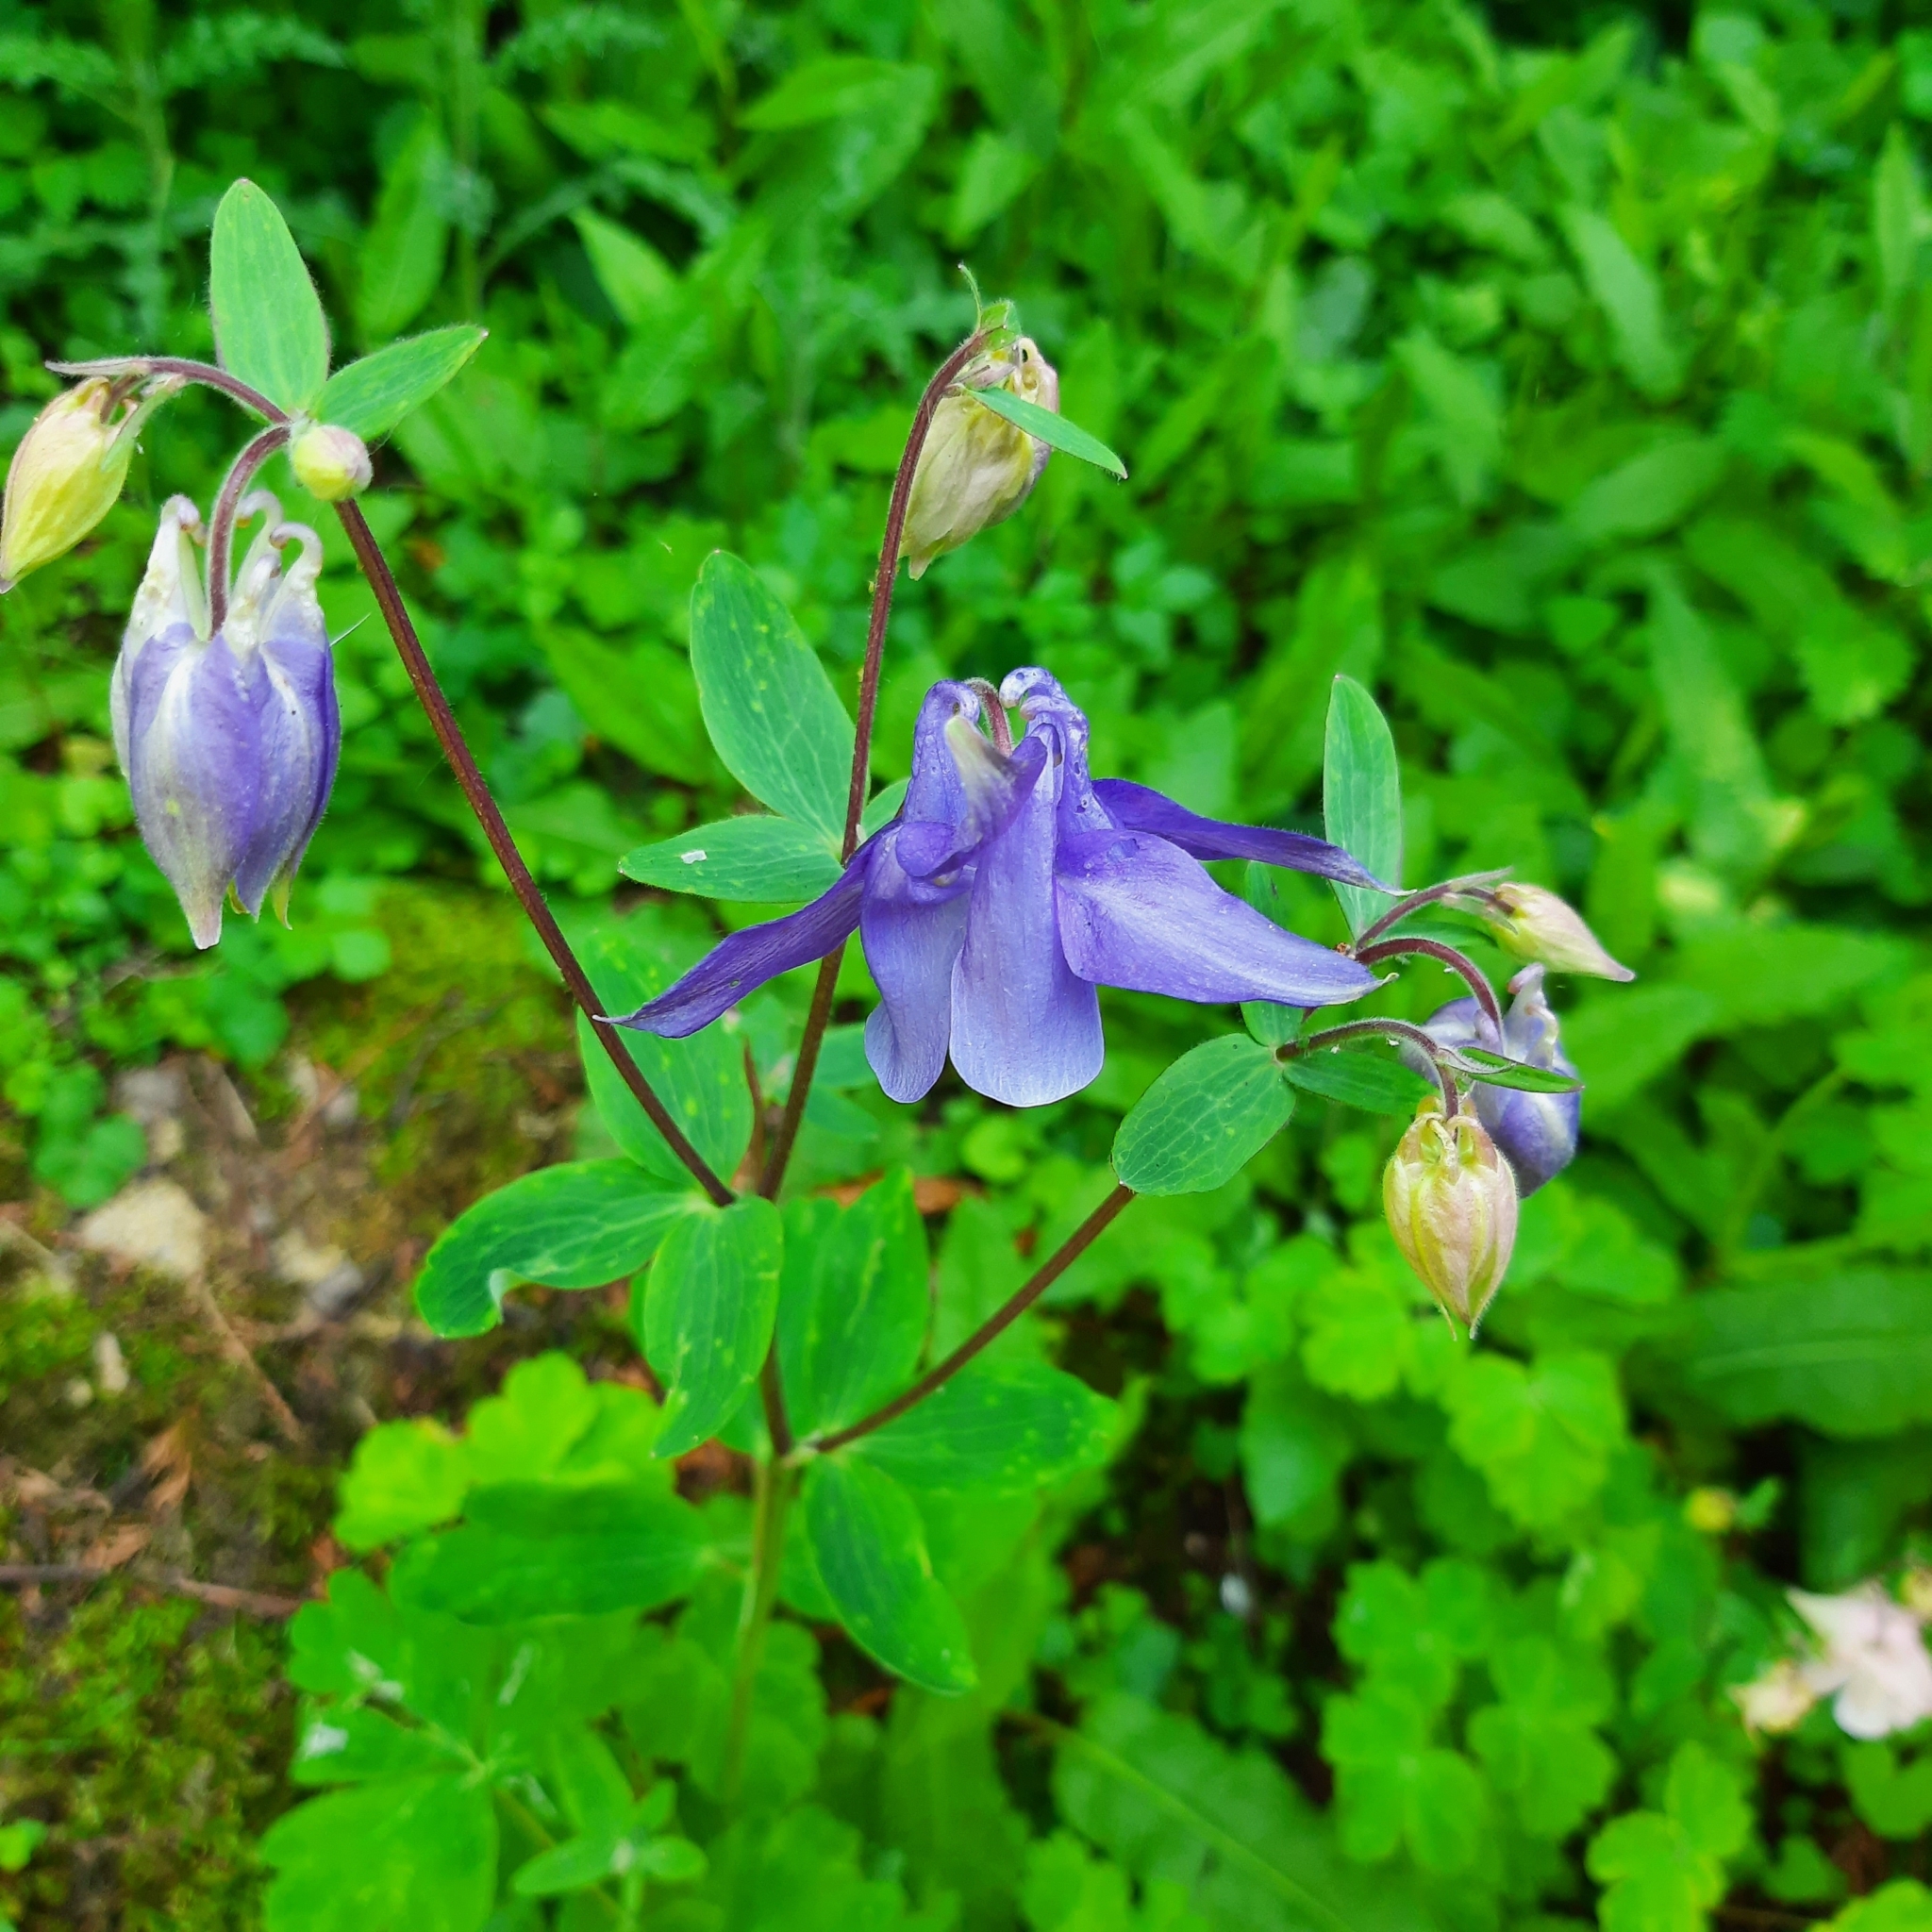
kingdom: Plantae
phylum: Tracheophyta
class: Magnoliopsida
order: Ranunculales
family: Ranunculaceae
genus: Aquilegia
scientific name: Aquilegia vulgaris
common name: Columbine
